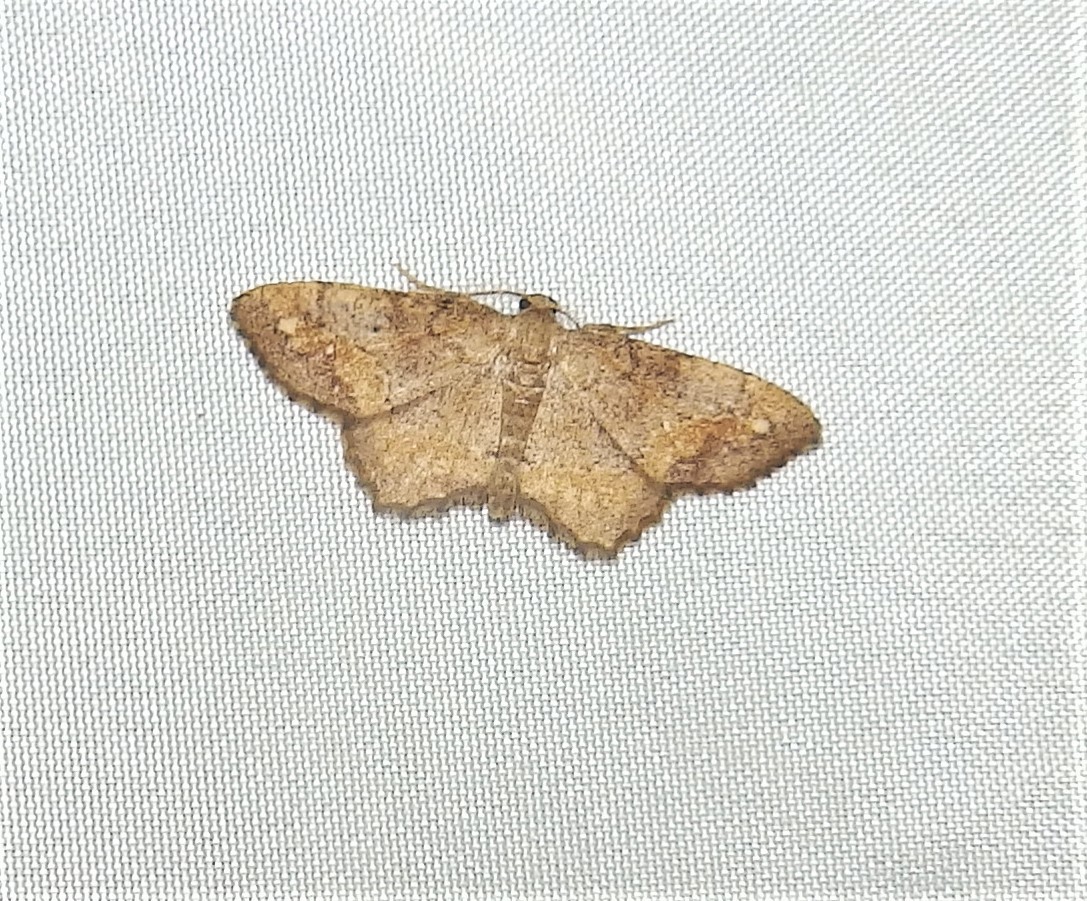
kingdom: Animalia
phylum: Arthropoda
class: Insecta
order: Lepidoptera
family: Geometridae
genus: Hypagyrtis
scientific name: Hypagyrtis unipunctata
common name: One-spotted variant
